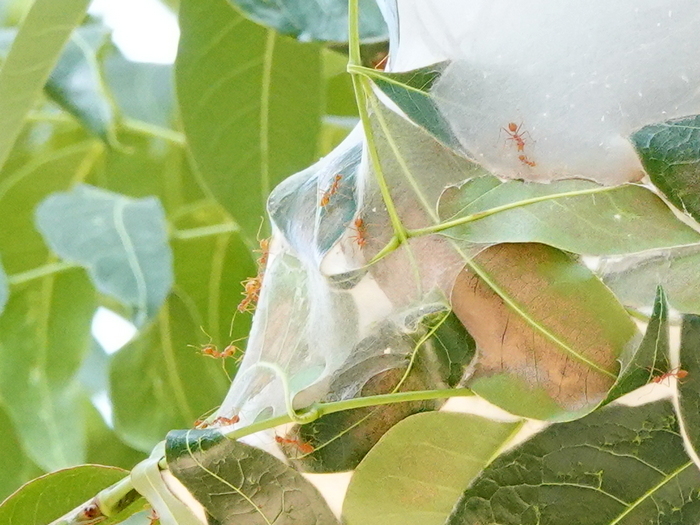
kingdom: Animalia
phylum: Arthropoda
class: Insecta
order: Hymenoptera
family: Formicidae
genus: Oecophylla
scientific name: Oecophylla smaragdina
